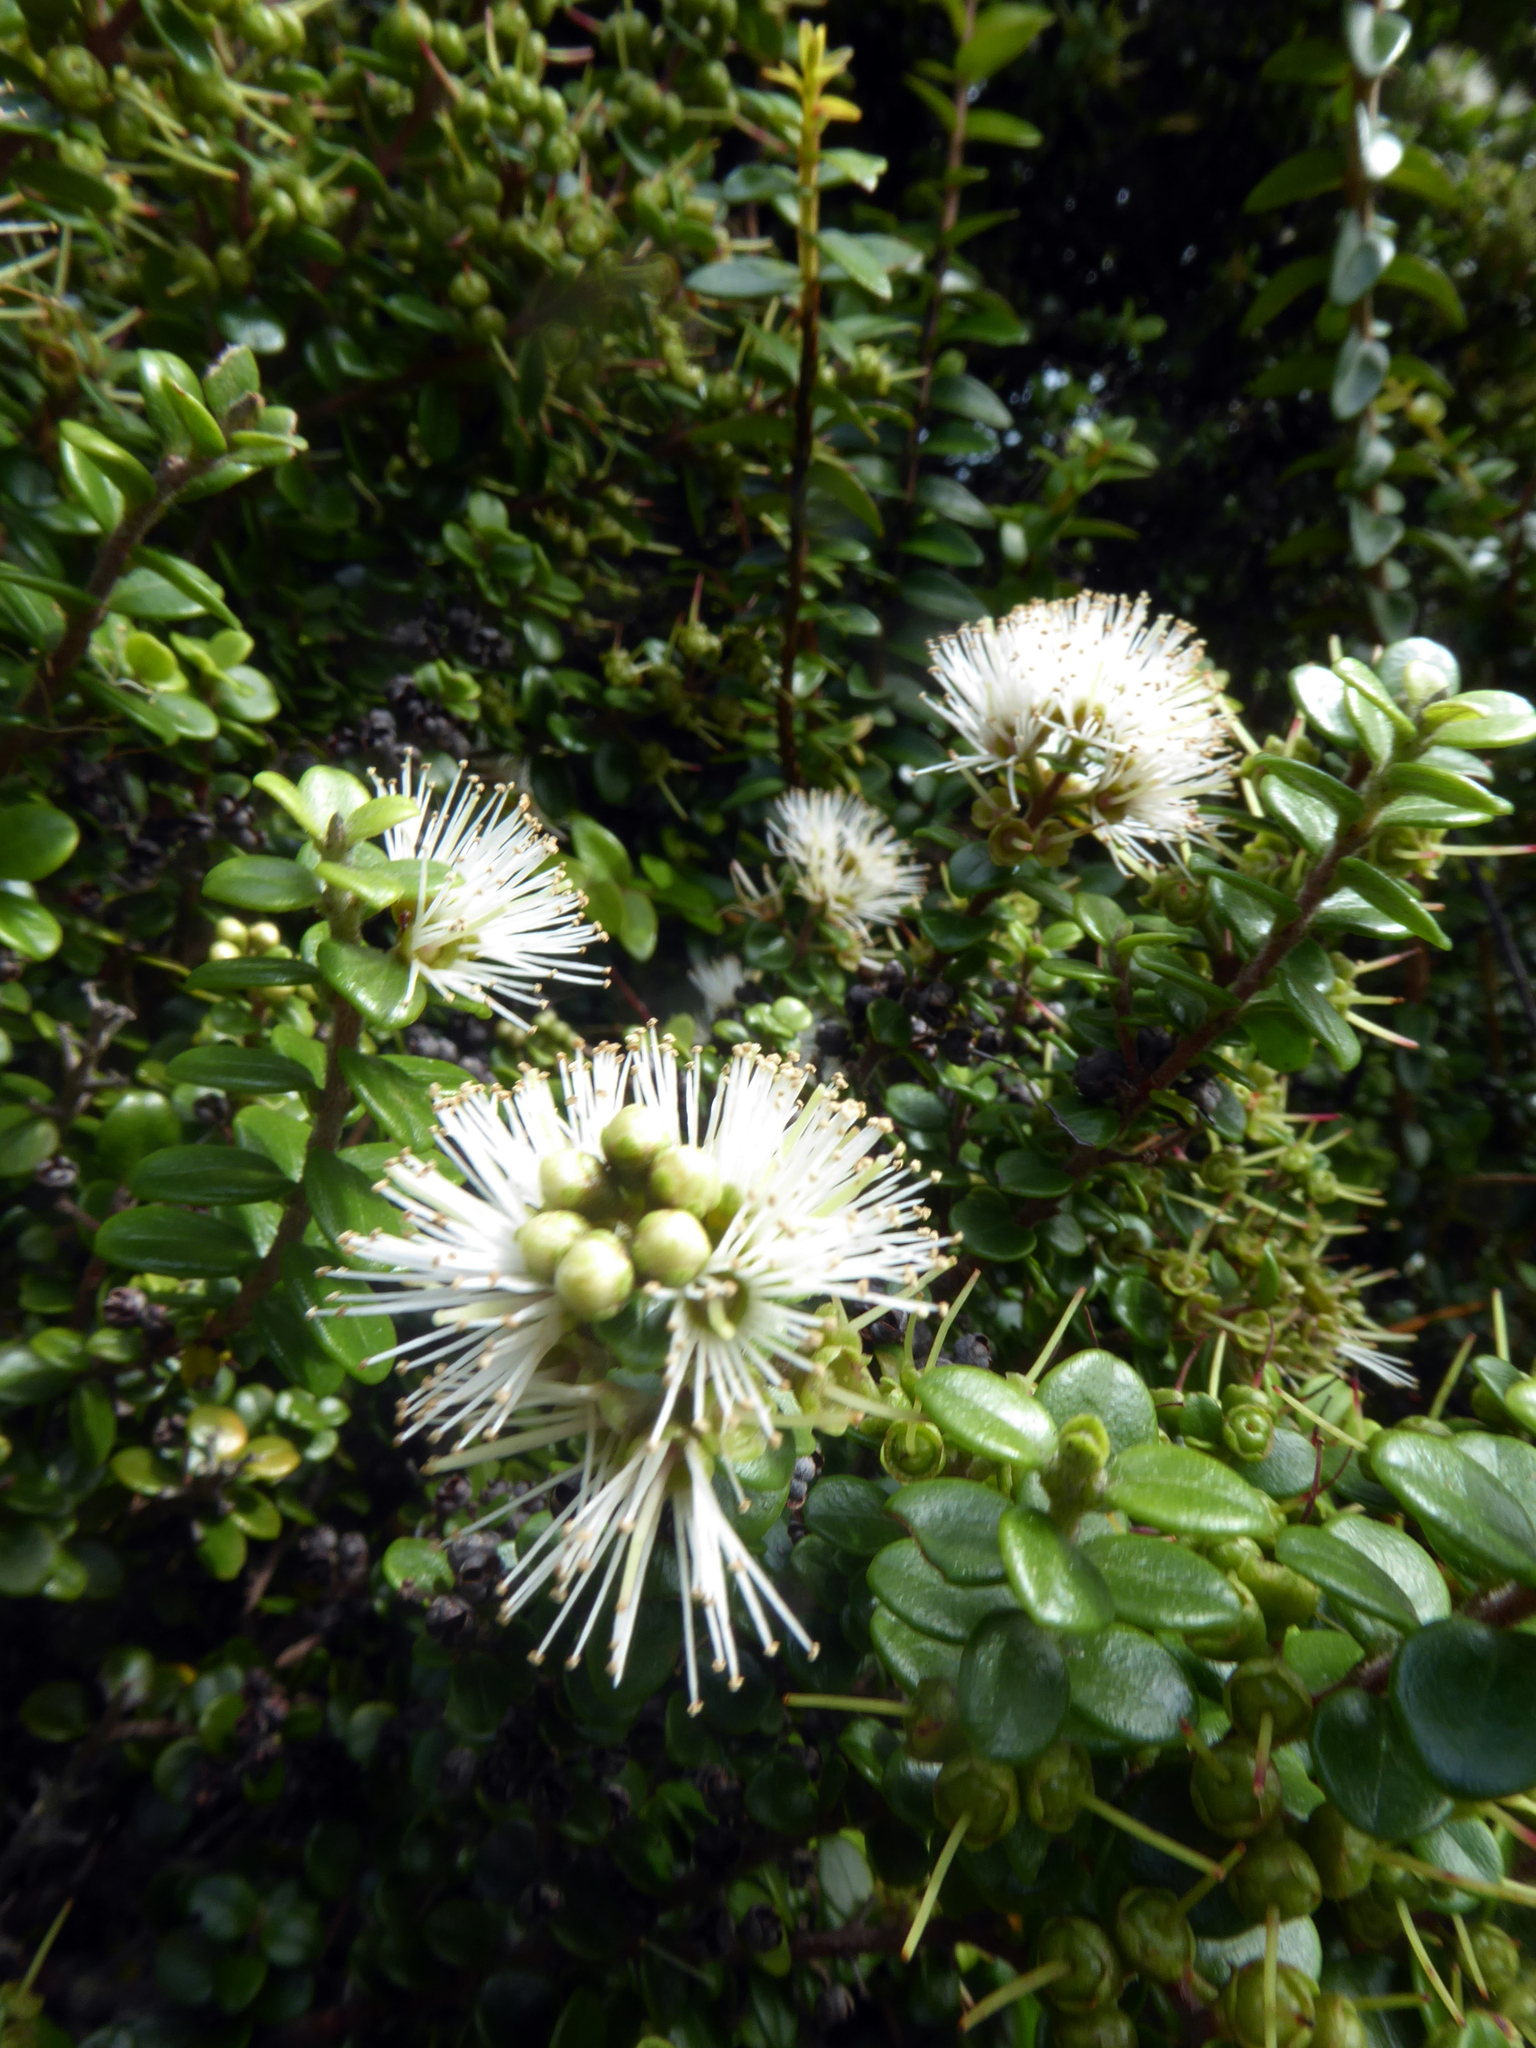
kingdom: Plantae
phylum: Tracheophyta
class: Magnoliopsida
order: Myrtales
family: Myrtaceae
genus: Metrosideros
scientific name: Metrosideros perforata
